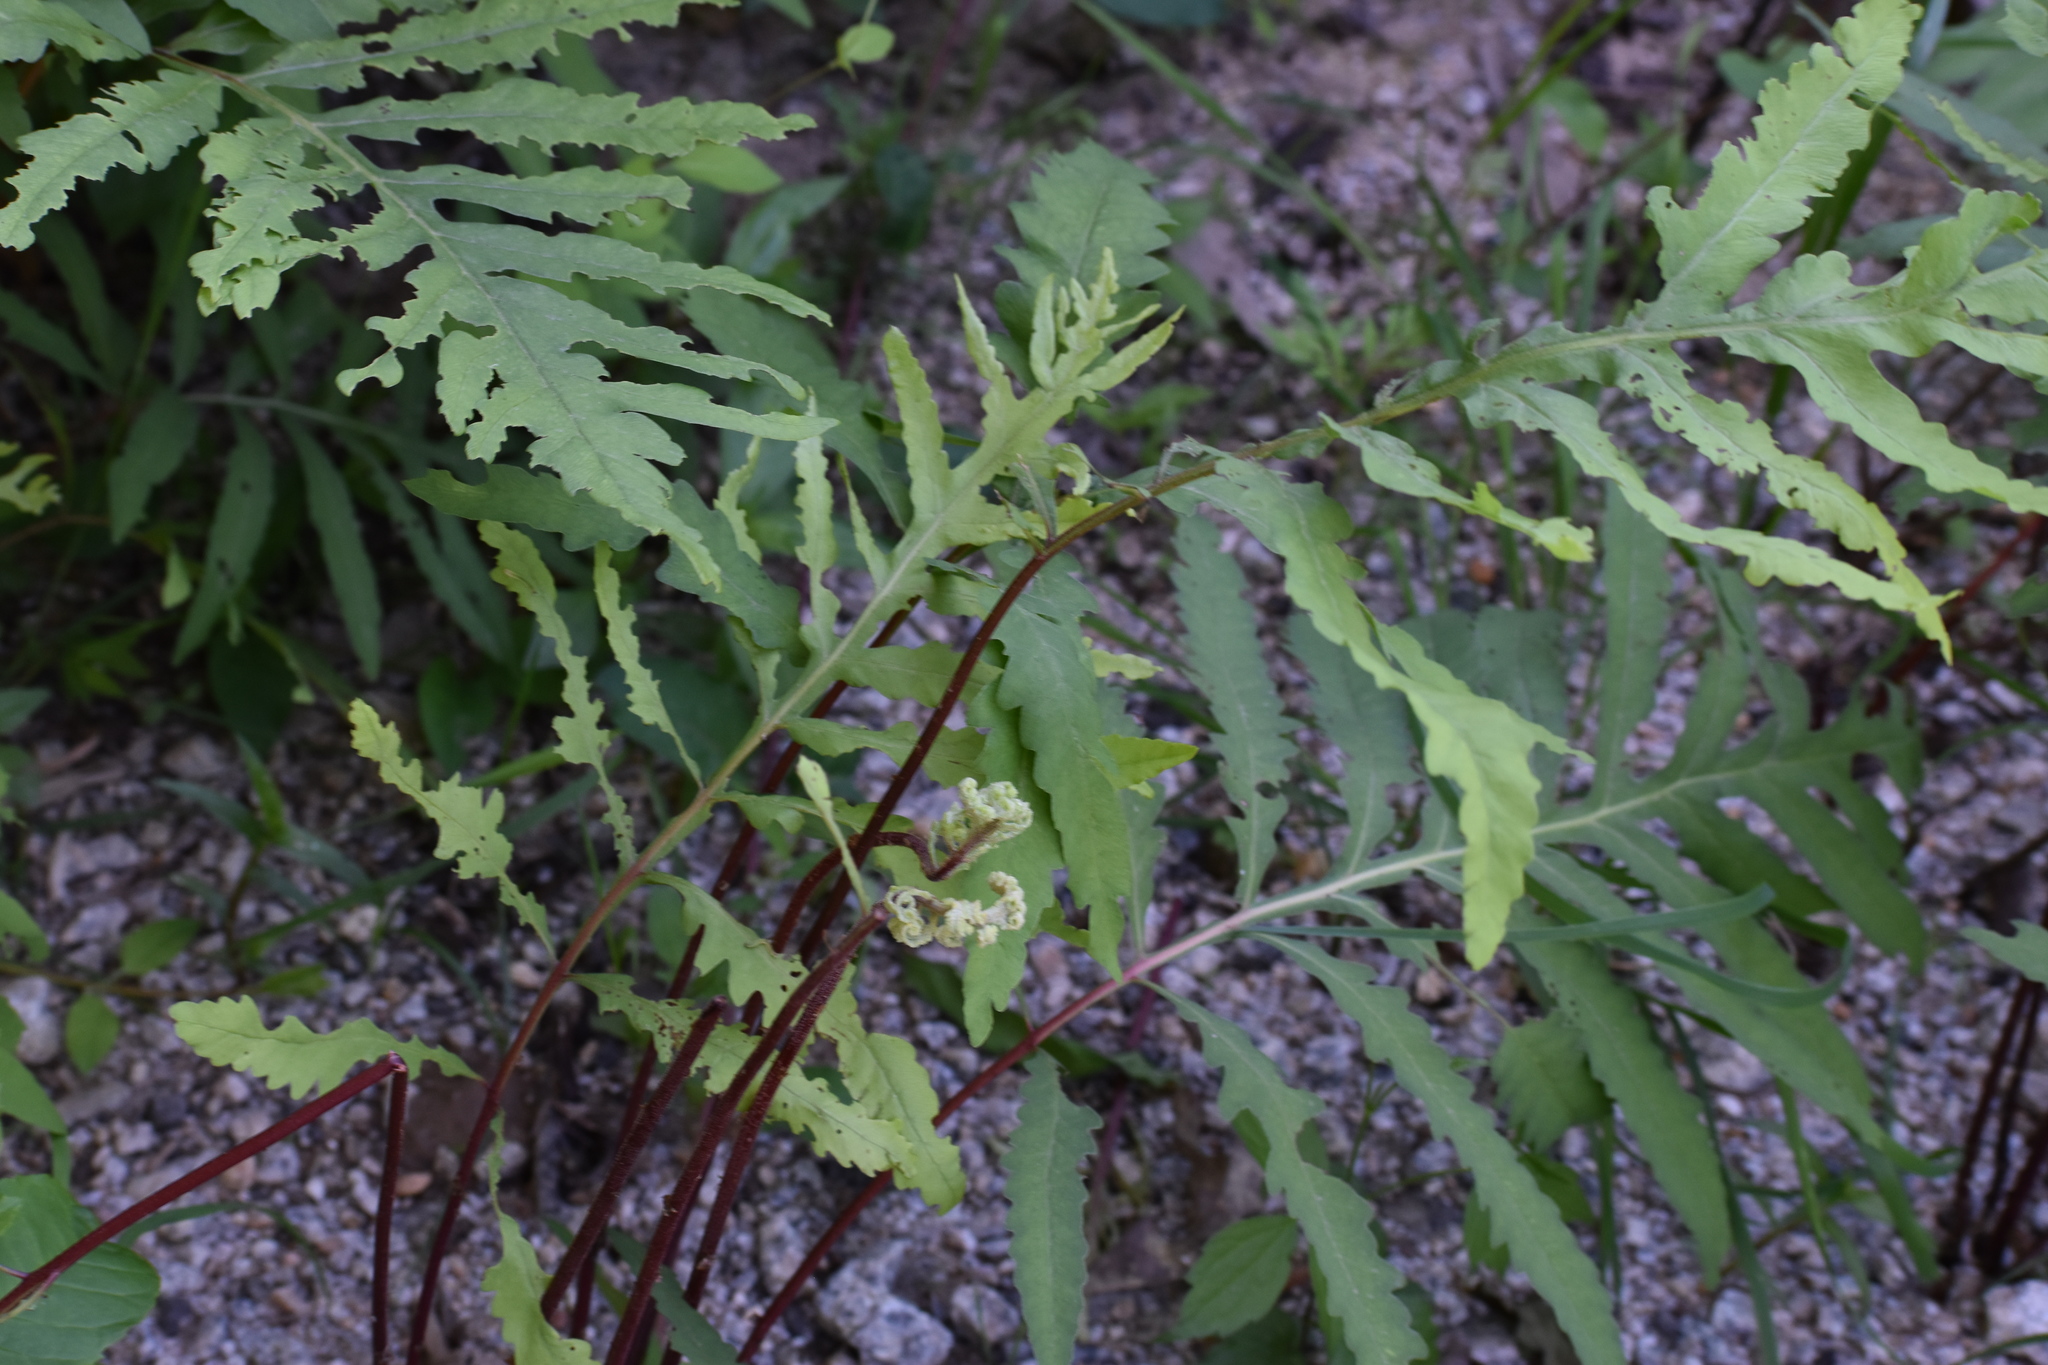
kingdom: Plantae
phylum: Tracheophyta
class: Polypodiopsida
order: Polypodiales
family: Onocleaceae
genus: Onoclea
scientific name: Onoclea sensibilis
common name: Sensitive fern
